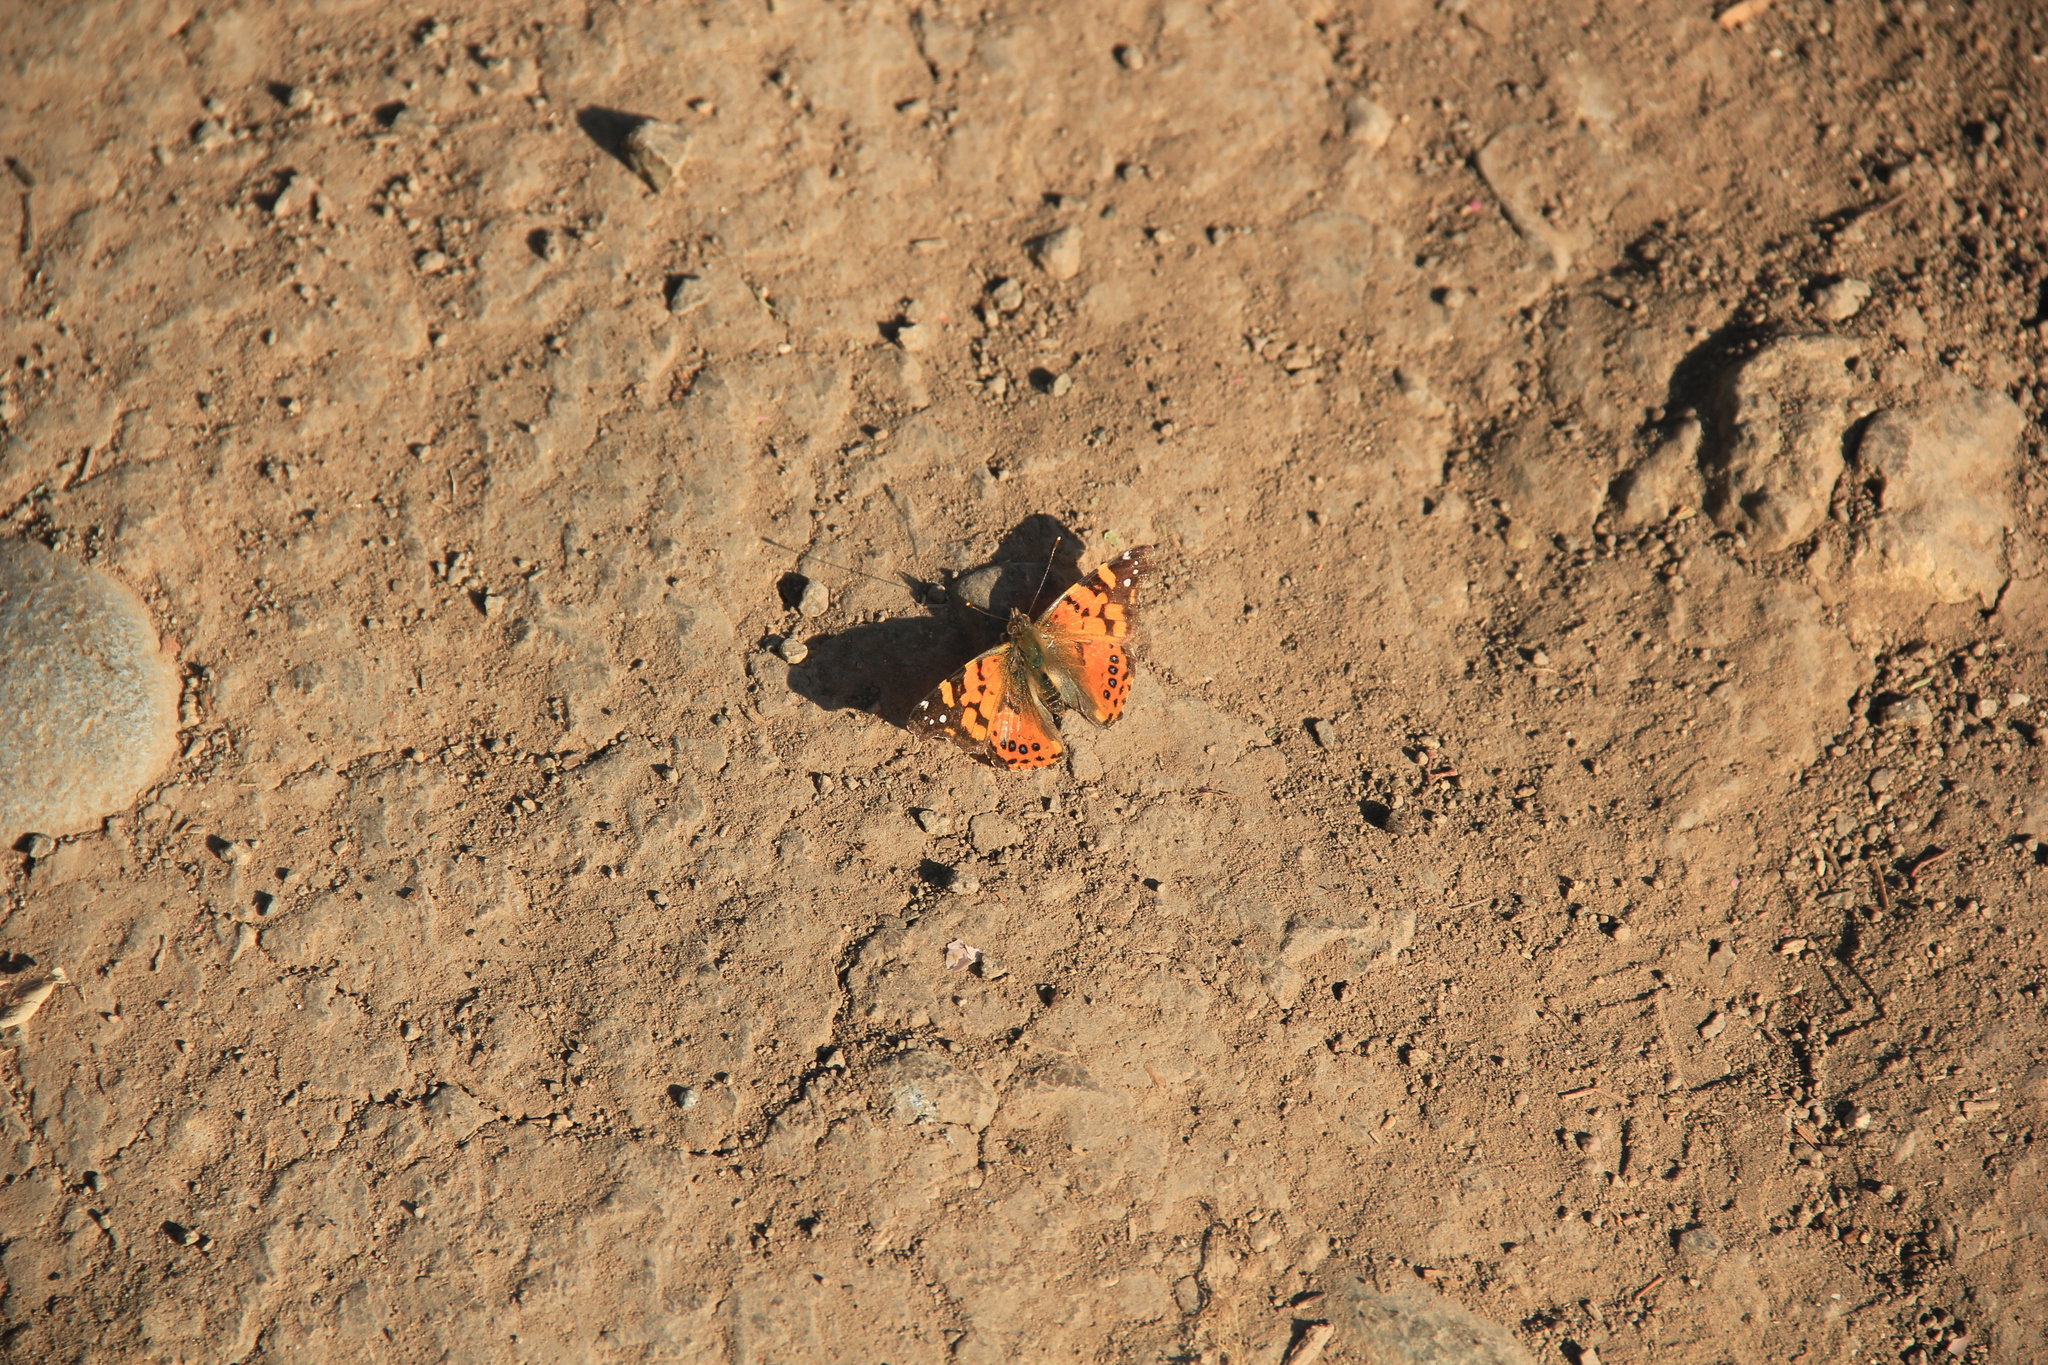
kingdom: Animalia
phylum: Arthropoda
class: Insecta
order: Lepidoptera
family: Nymphalidae
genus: Vanessa
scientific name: Vanessa carye
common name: Subtropical lady
